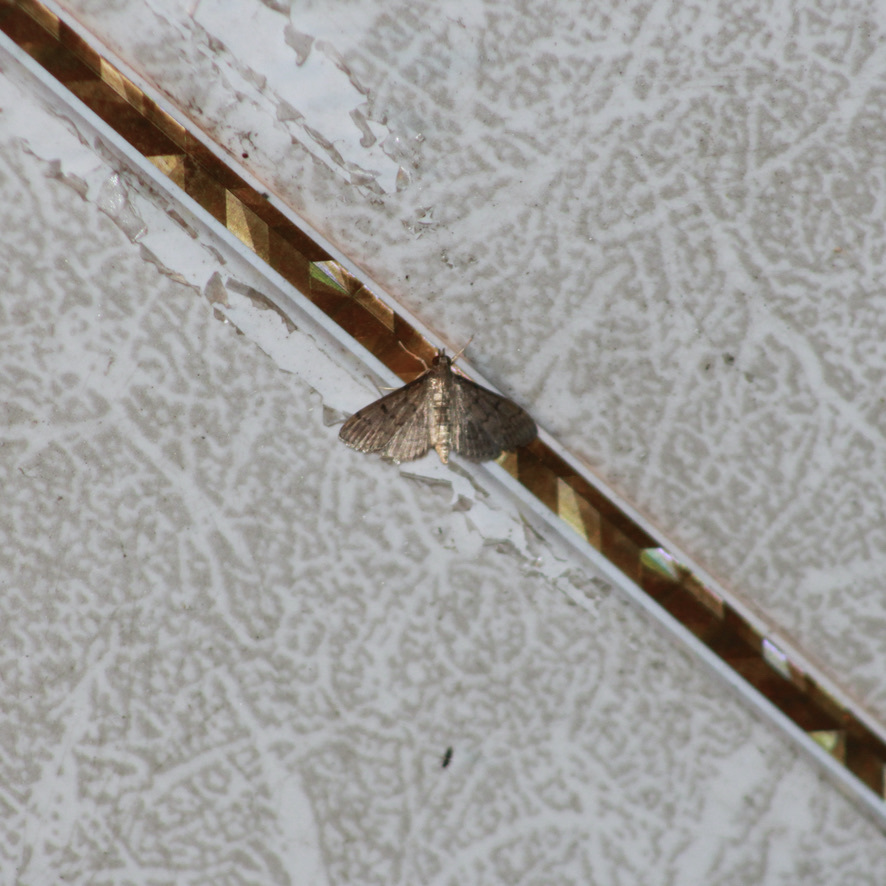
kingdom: Animalia
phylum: Arthropoda
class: Insecta
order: Lepidoptera
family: Crambidae
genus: Herpetogramma
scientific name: Herpetogramma phaeopteralis
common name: Dusky herpetogramma moth
